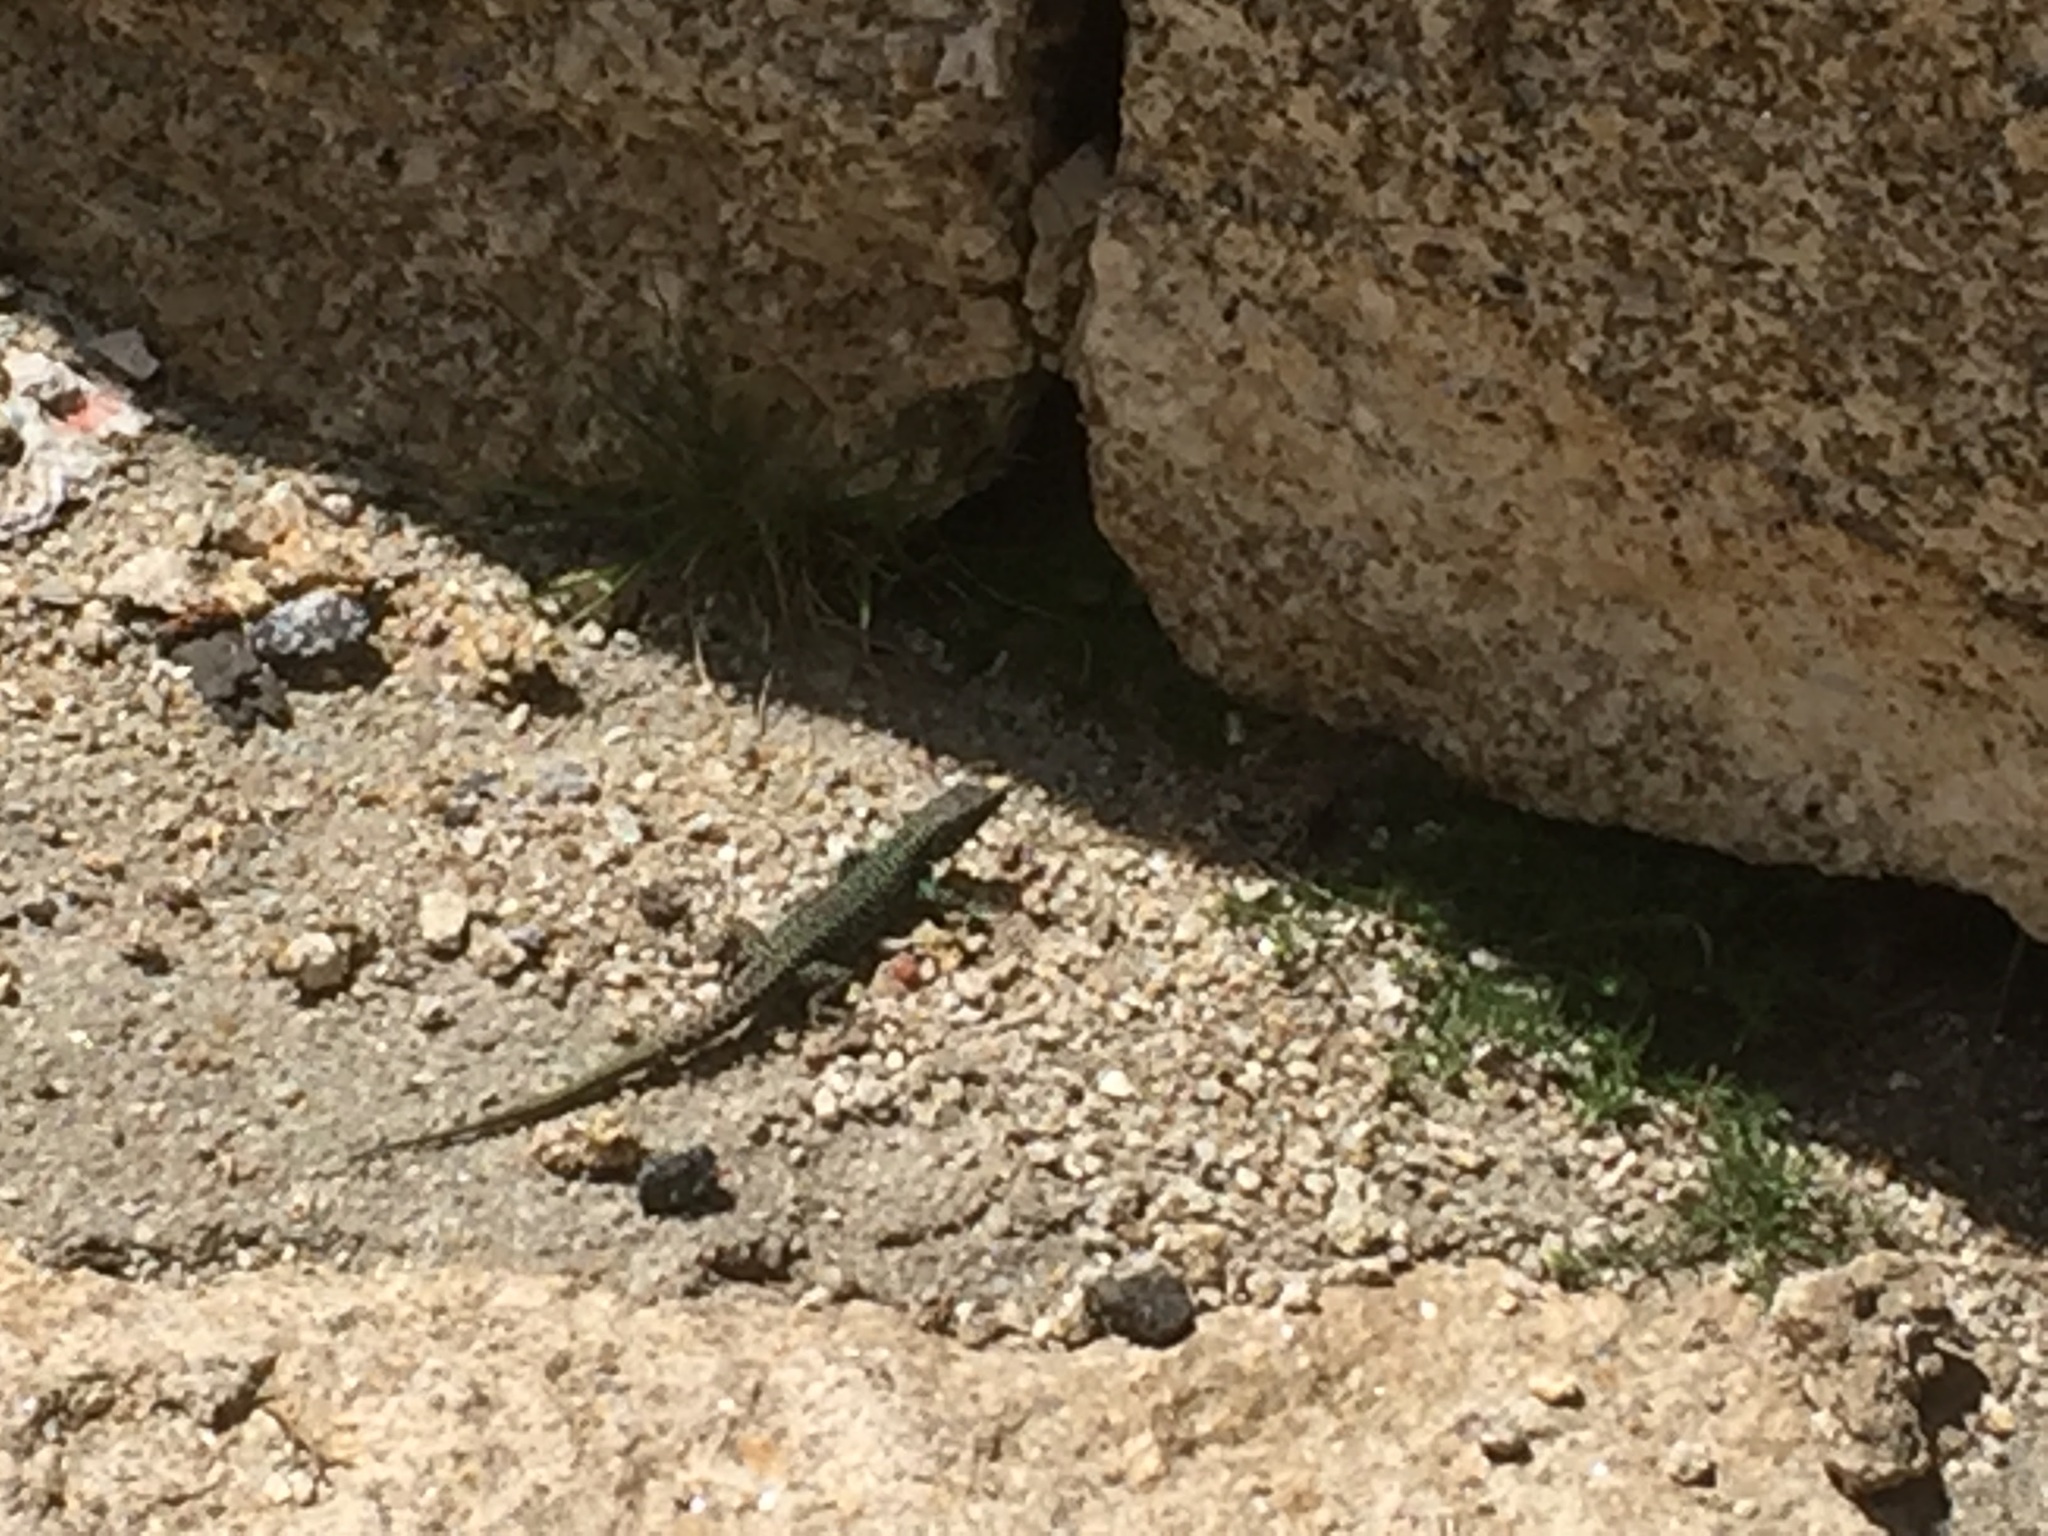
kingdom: Animalia
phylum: Chordata
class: Squamata
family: Lacertidae
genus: Iberolacerta
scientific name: Iberolacerta monticola
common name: Iberian mountain lizard
